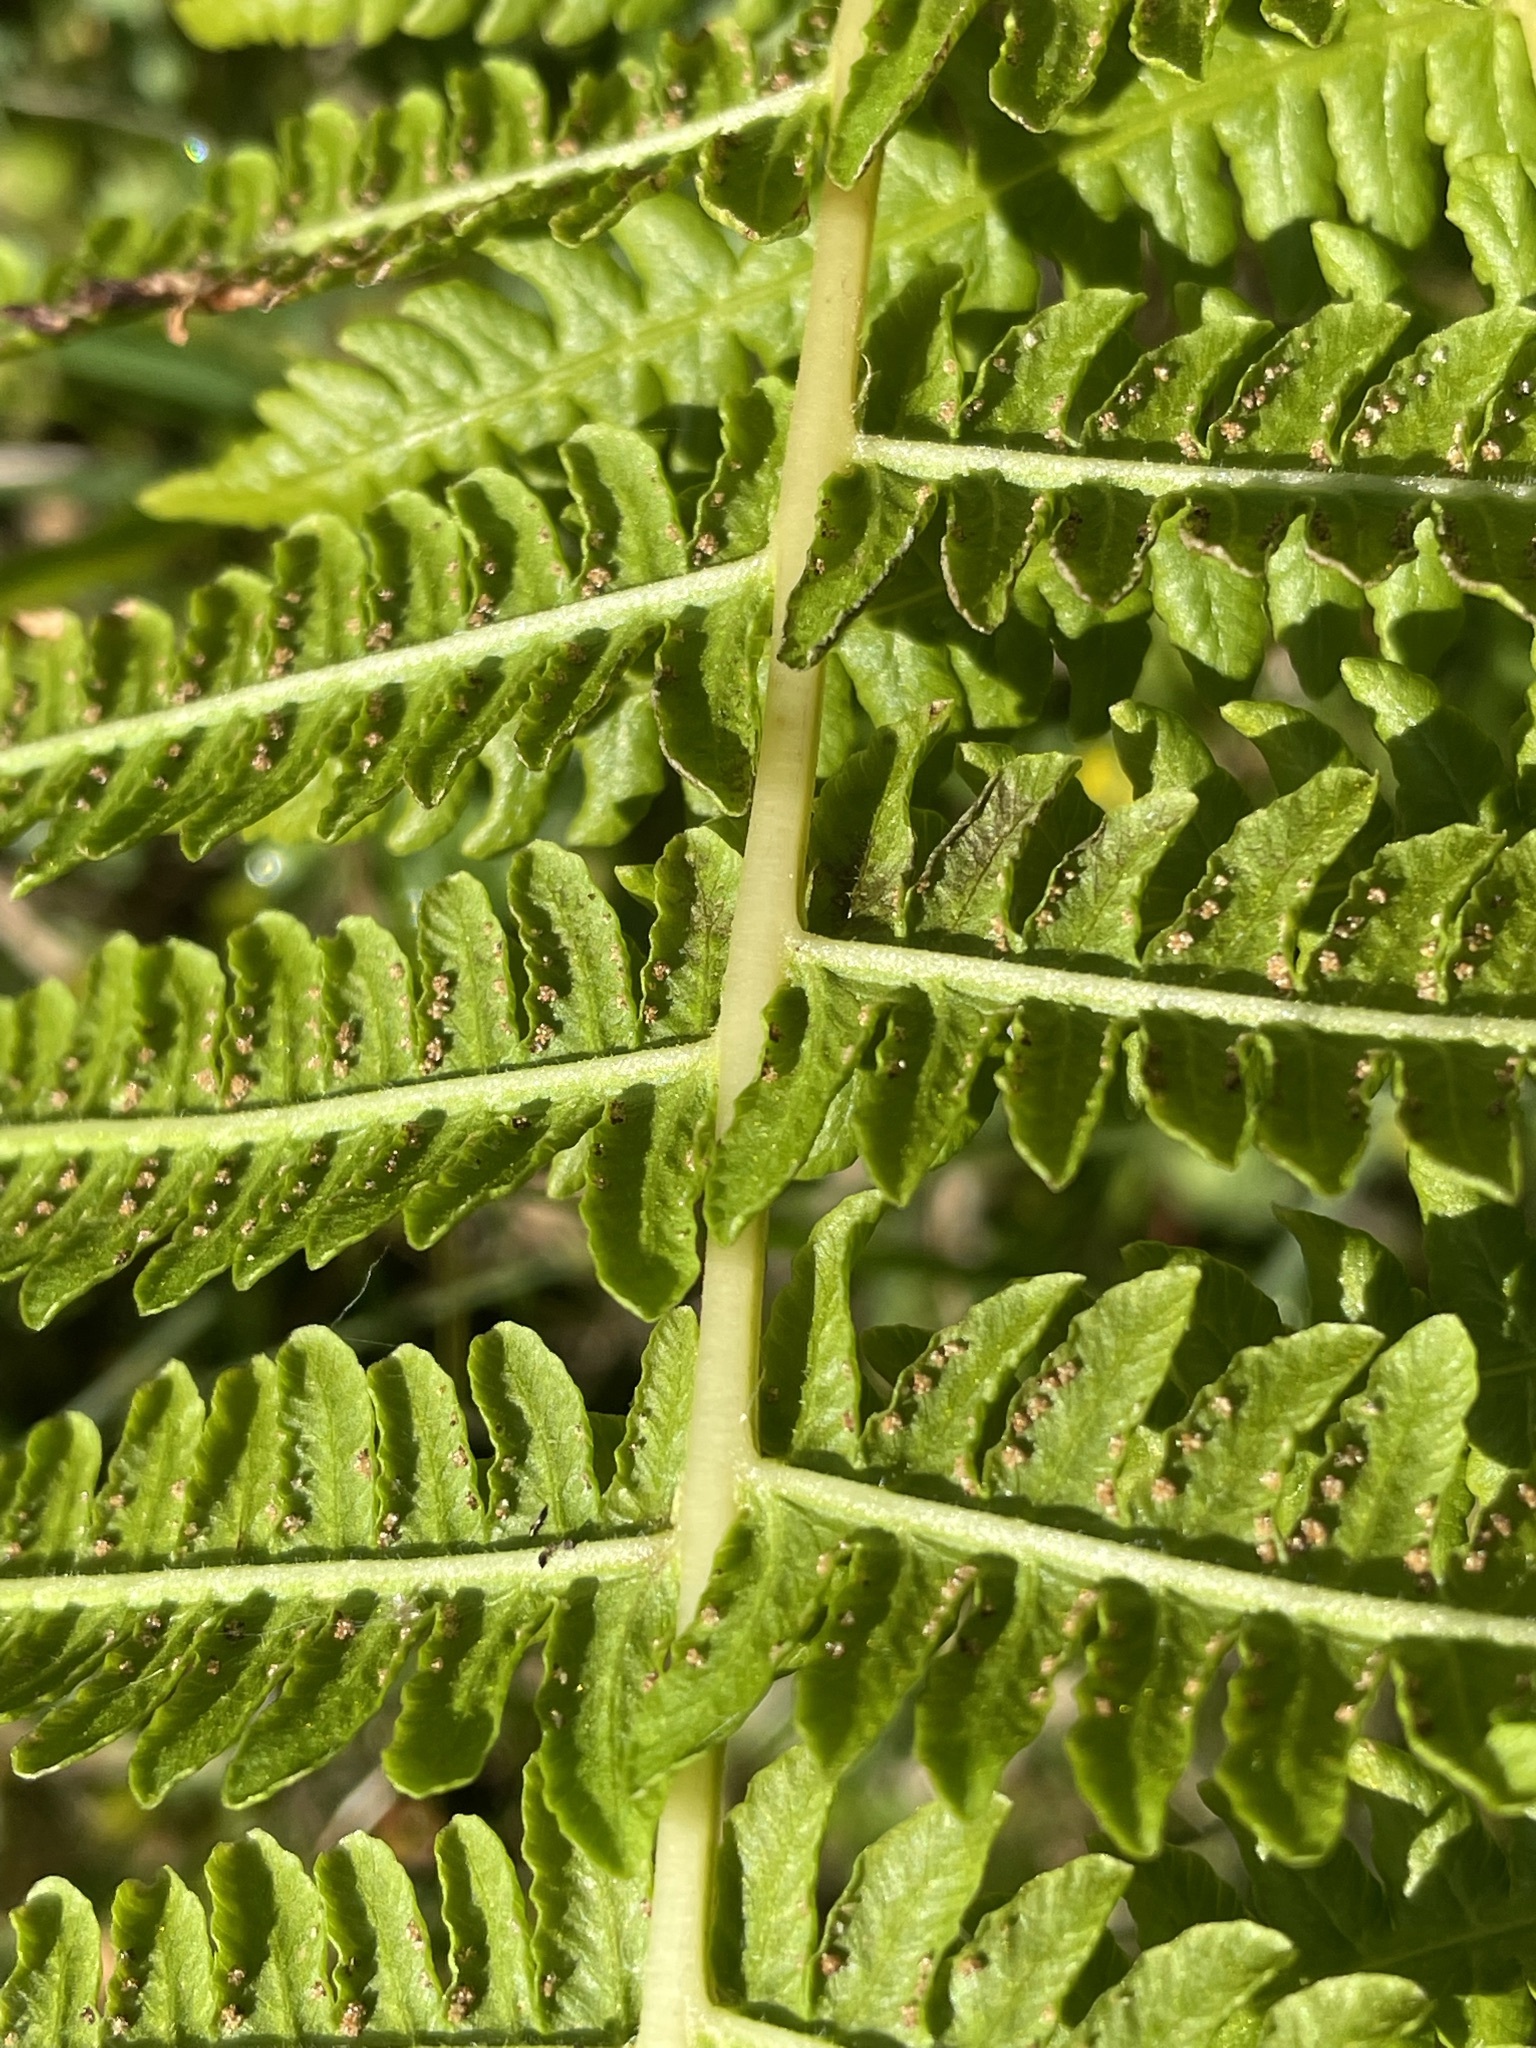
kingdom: Plantae
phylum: Tracheophyta
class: Polypodiopsida
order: Polypodiales
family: Thelypteridaceae
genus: Oreopteris
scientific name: Oreopteris limbosperma
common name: Lemon-scented fern
